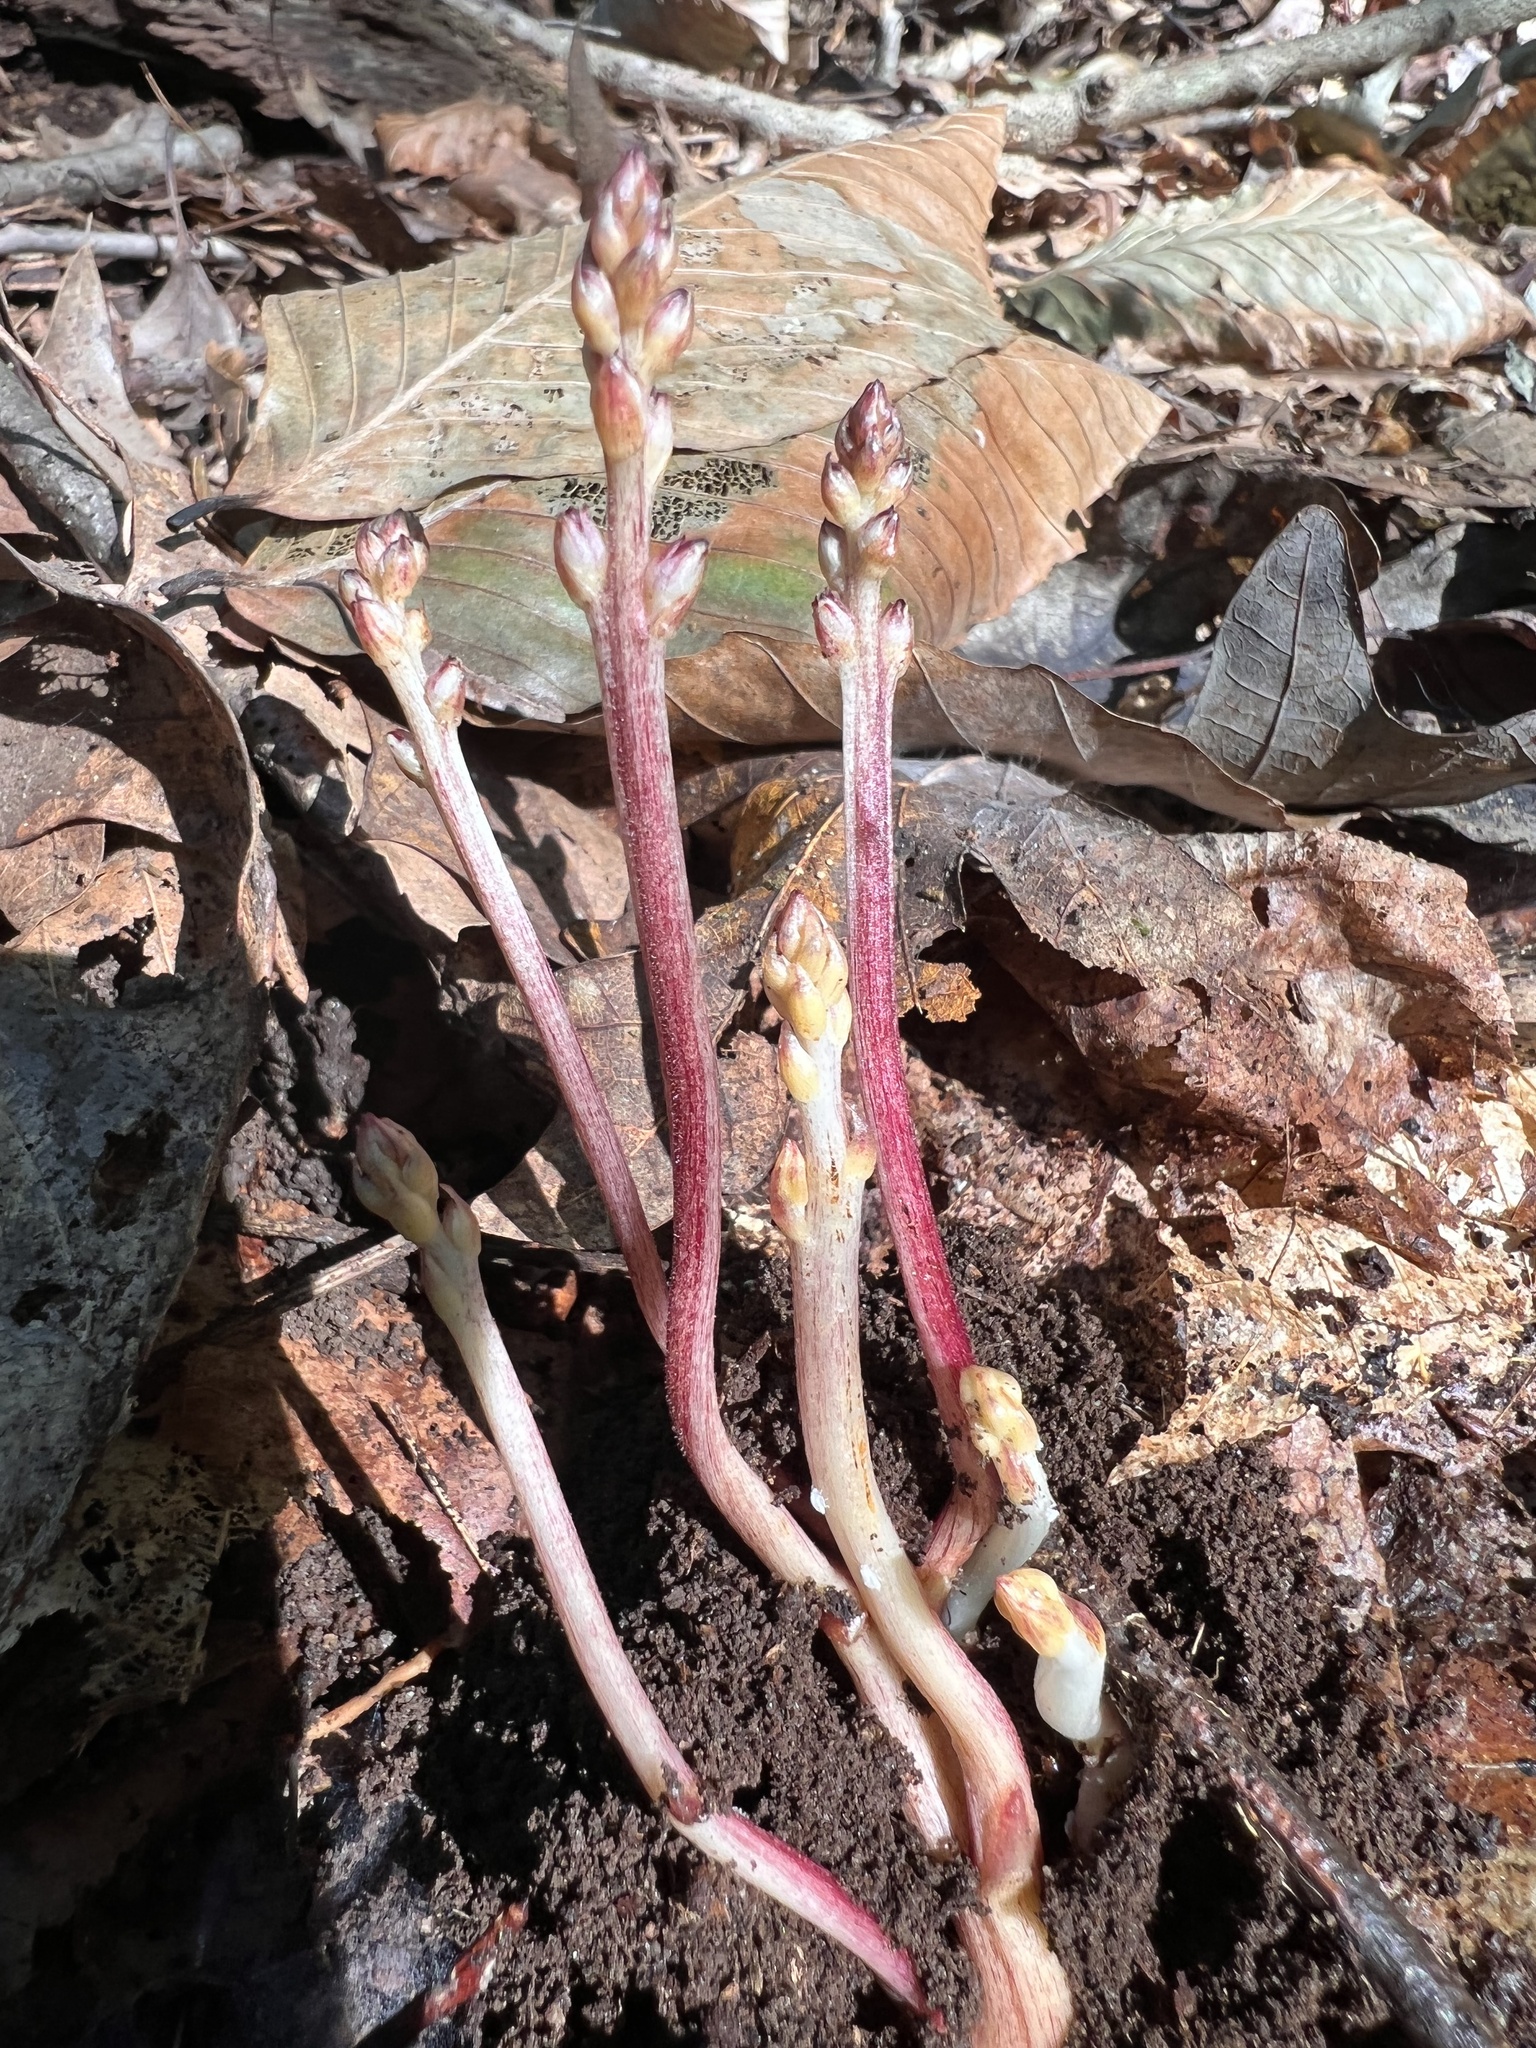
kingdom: Plantae
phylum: Tracheophyta
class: Magnoliopsida
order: Lamiales
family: Orobanchaceae
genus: Epifagus
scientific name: Epifagus virginiana
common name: Beechdrops
